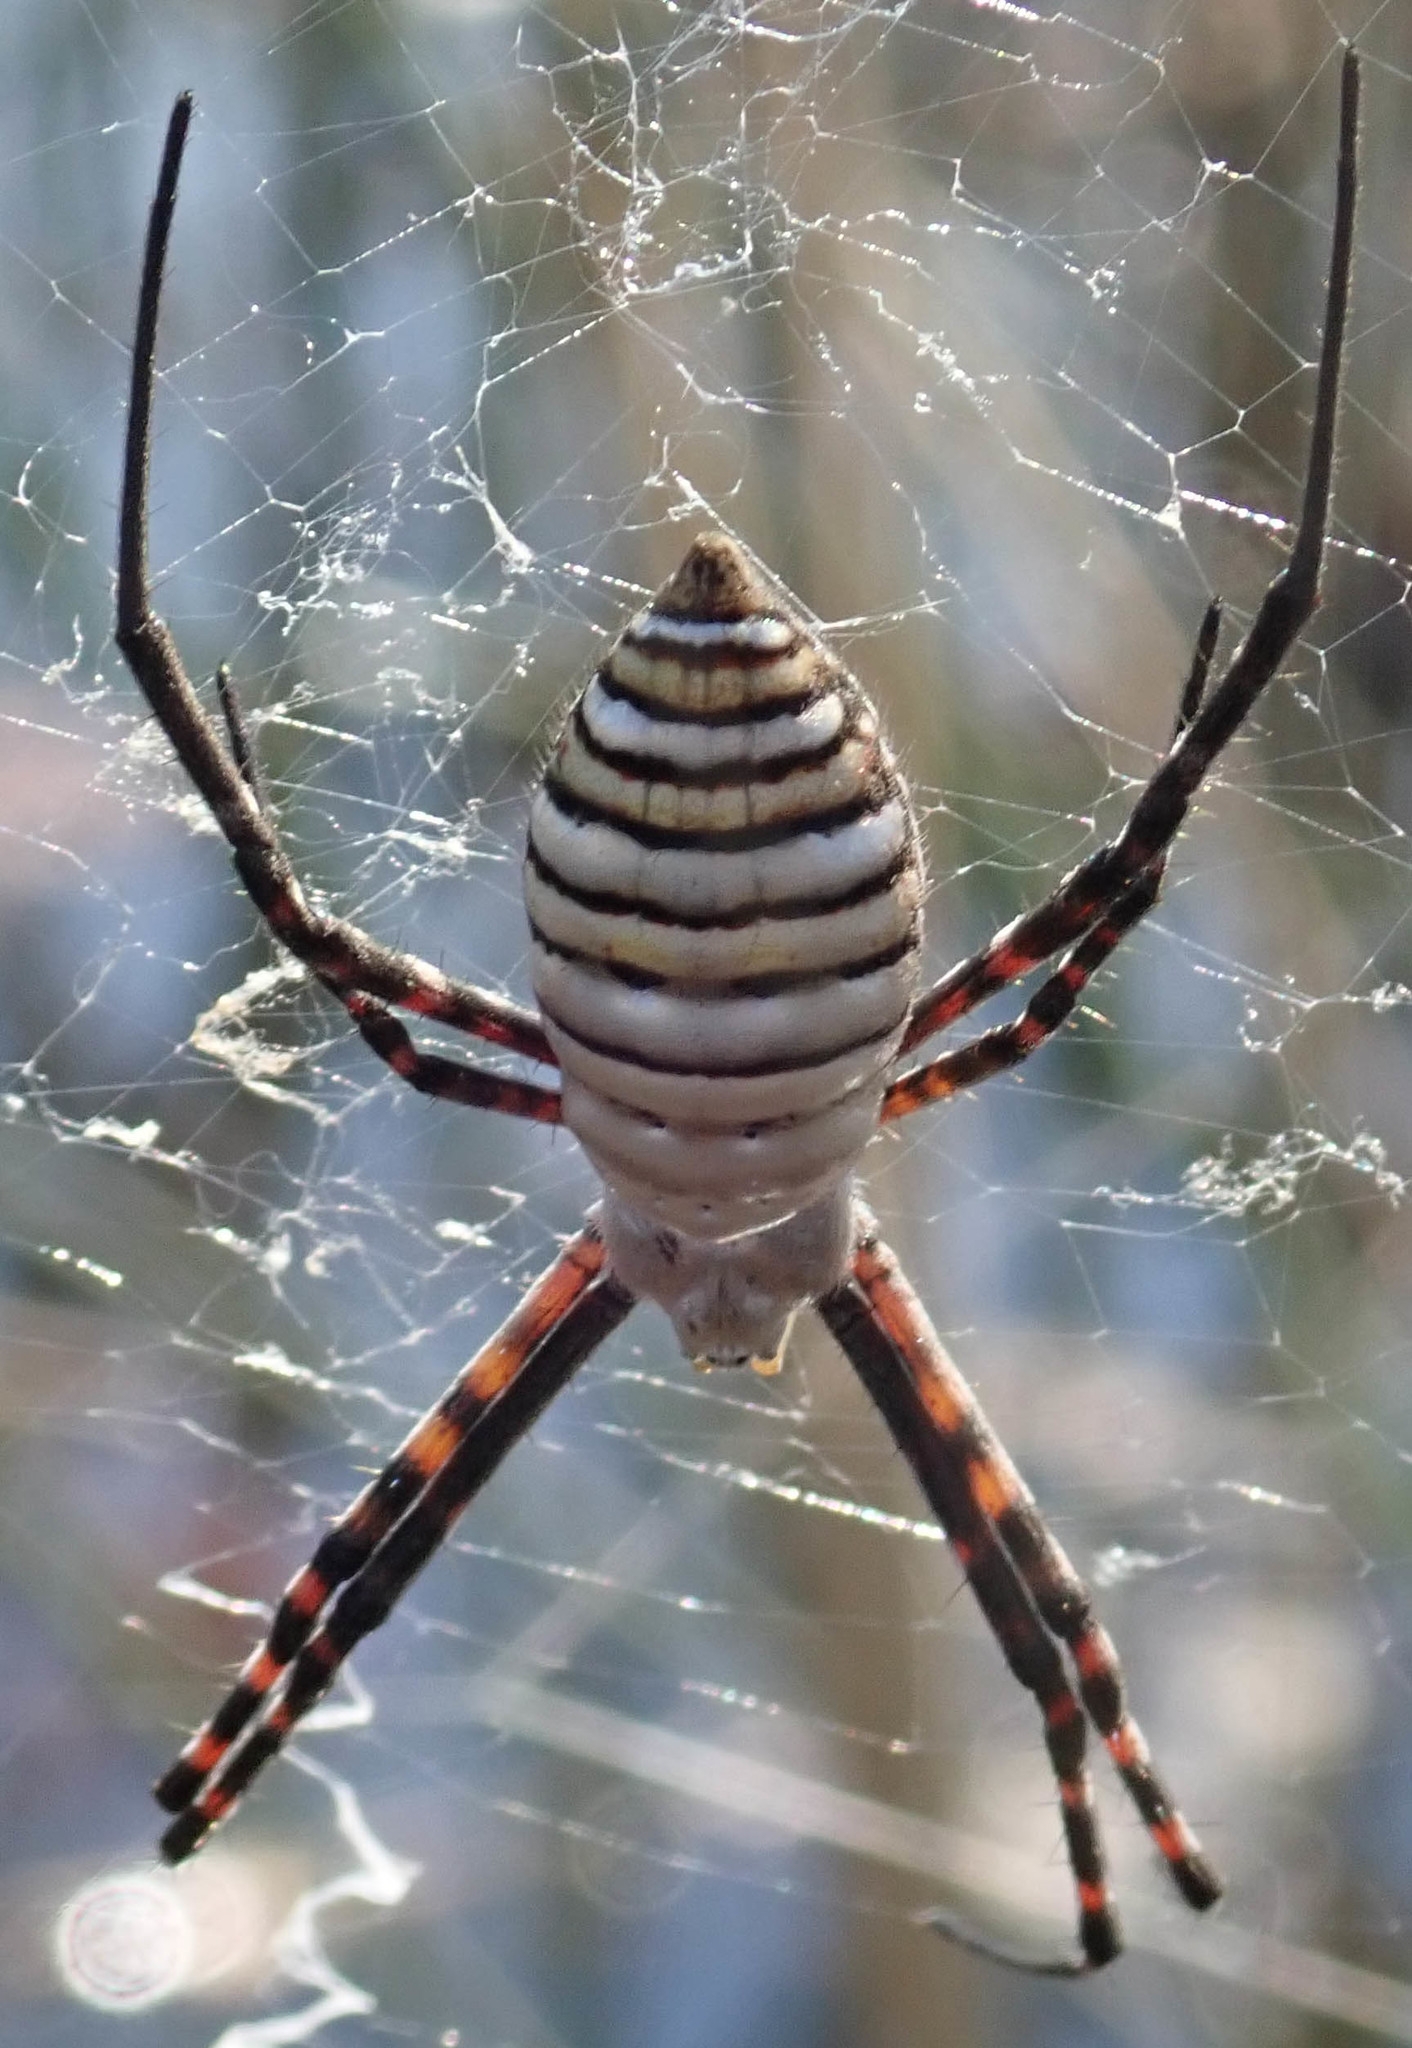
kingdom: Animalia
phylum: Arthropoda
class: Arachnida
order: Araneae
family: Araneidae
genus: Argiope
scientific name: Argiope trifasciata
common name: Banded garden spider
